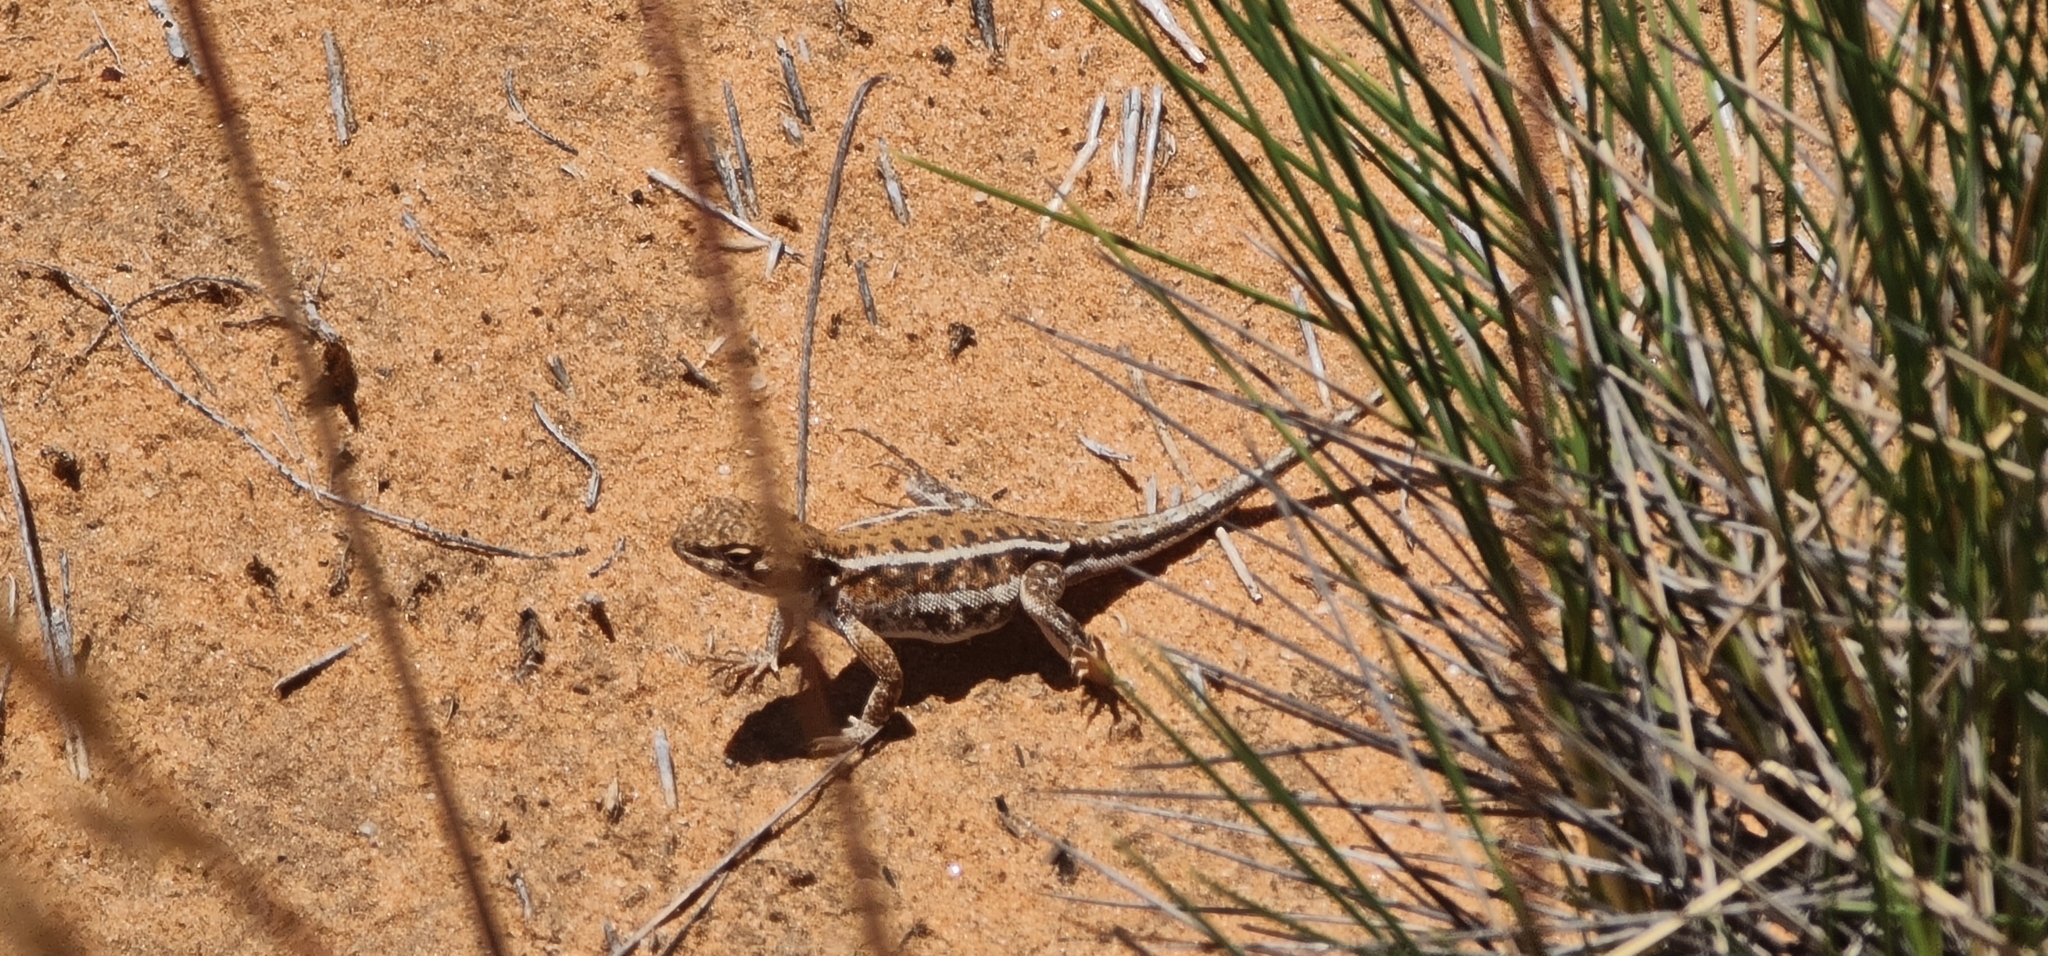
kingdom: Animalia
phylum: Chordata
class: Squamata
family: Agamidae
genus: Ctenophorus
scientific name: Ctenophorus spinodomus
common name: Eastern mallee dragon
